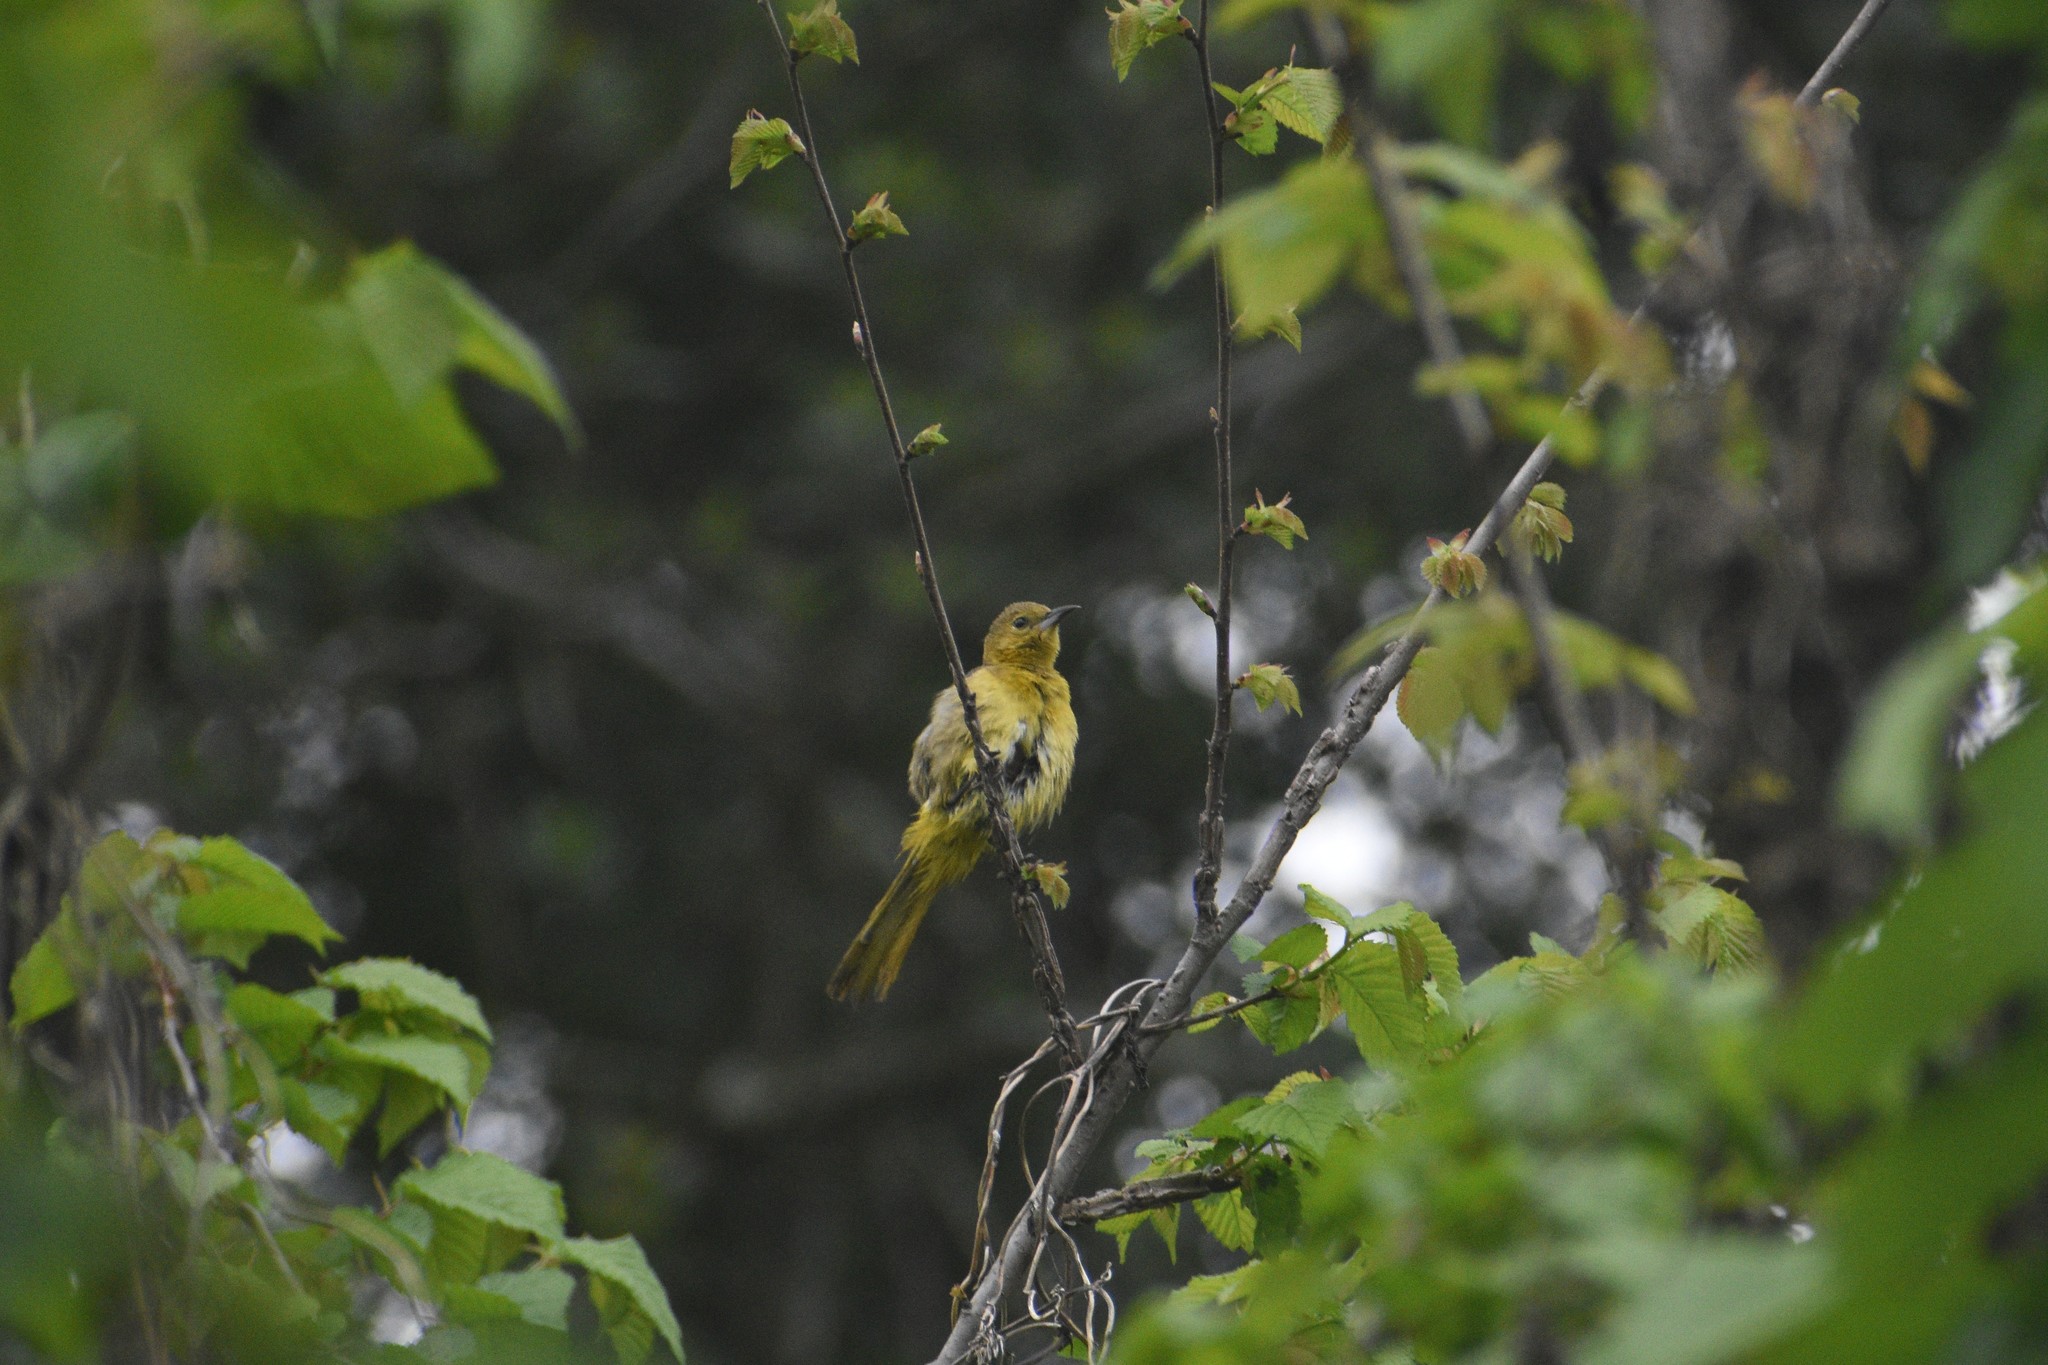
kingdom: Animalia
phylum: Chordata
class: Aves
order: Passeriformes
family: Icteridae
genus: Icterus
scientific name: Icterus cucullatus
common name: Hooded oriole
